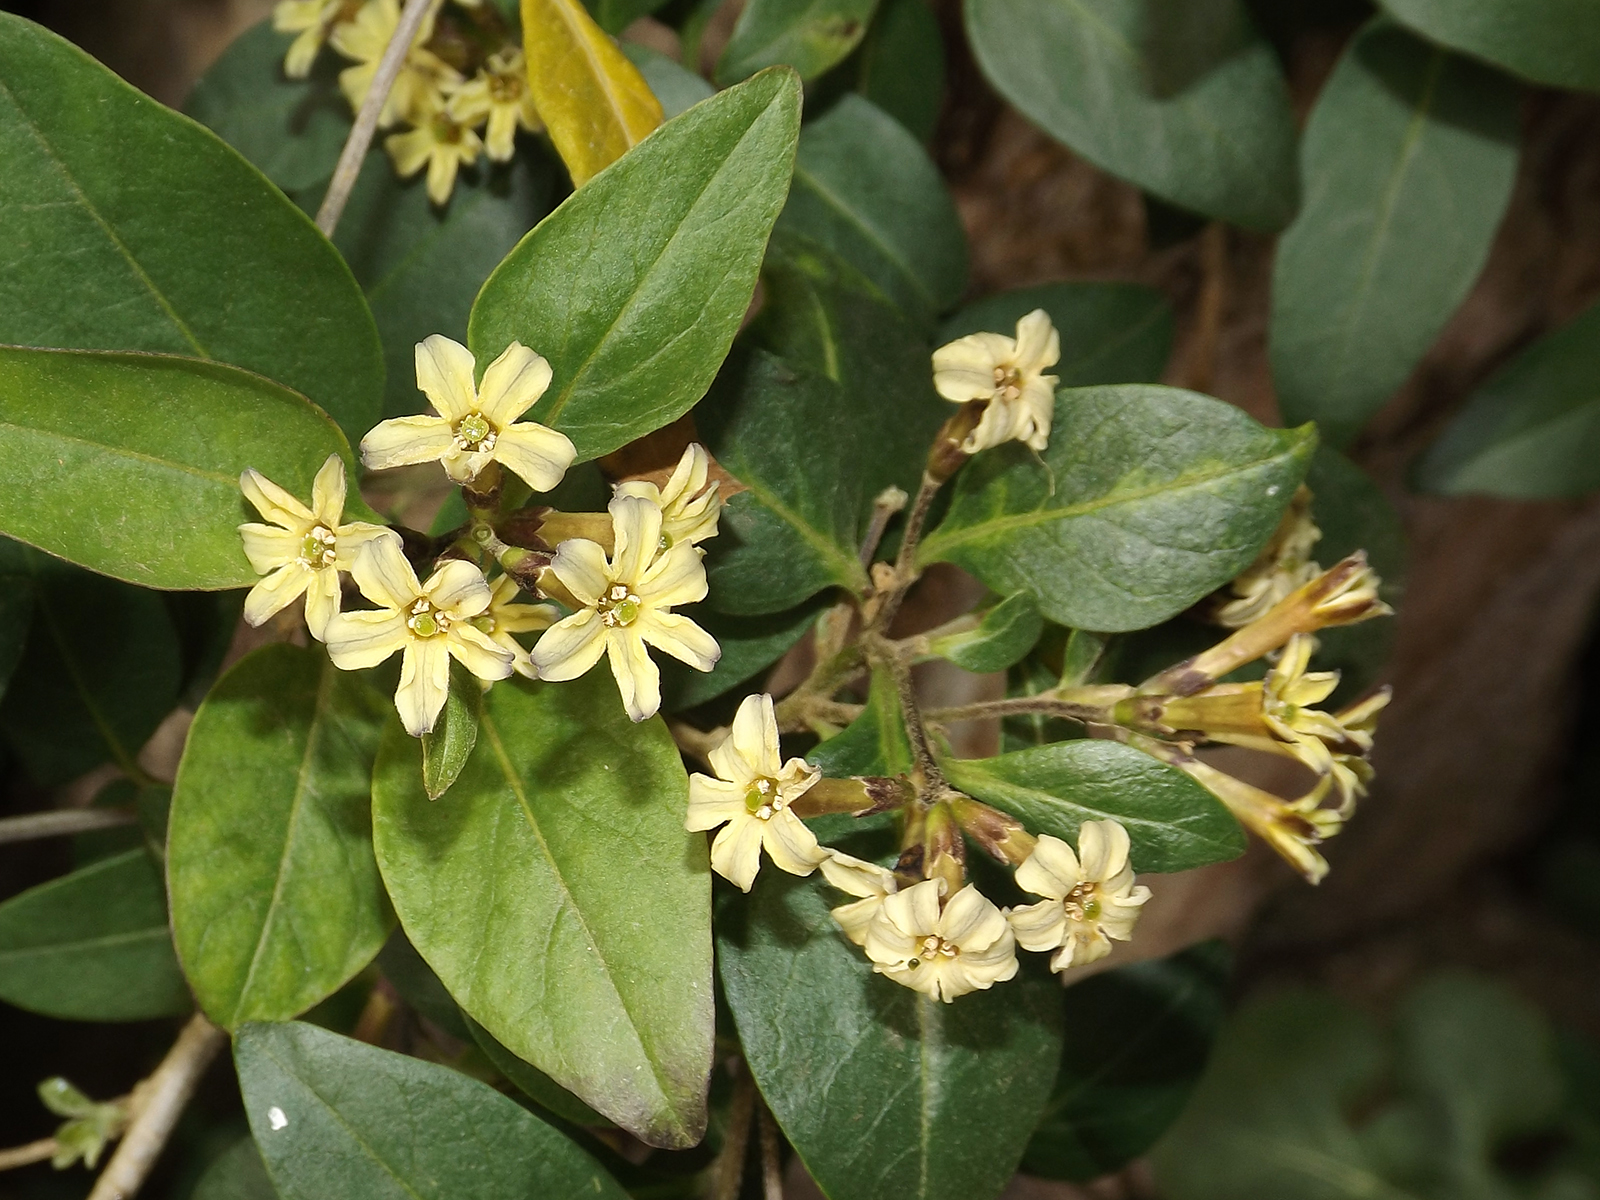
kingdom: Plantae
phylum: Tracheophyta
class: Magnoliopsida
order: Solanales
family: Solanaceae
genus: Cestrum
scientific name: Cestrum parqui
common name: Chilean cestrum
